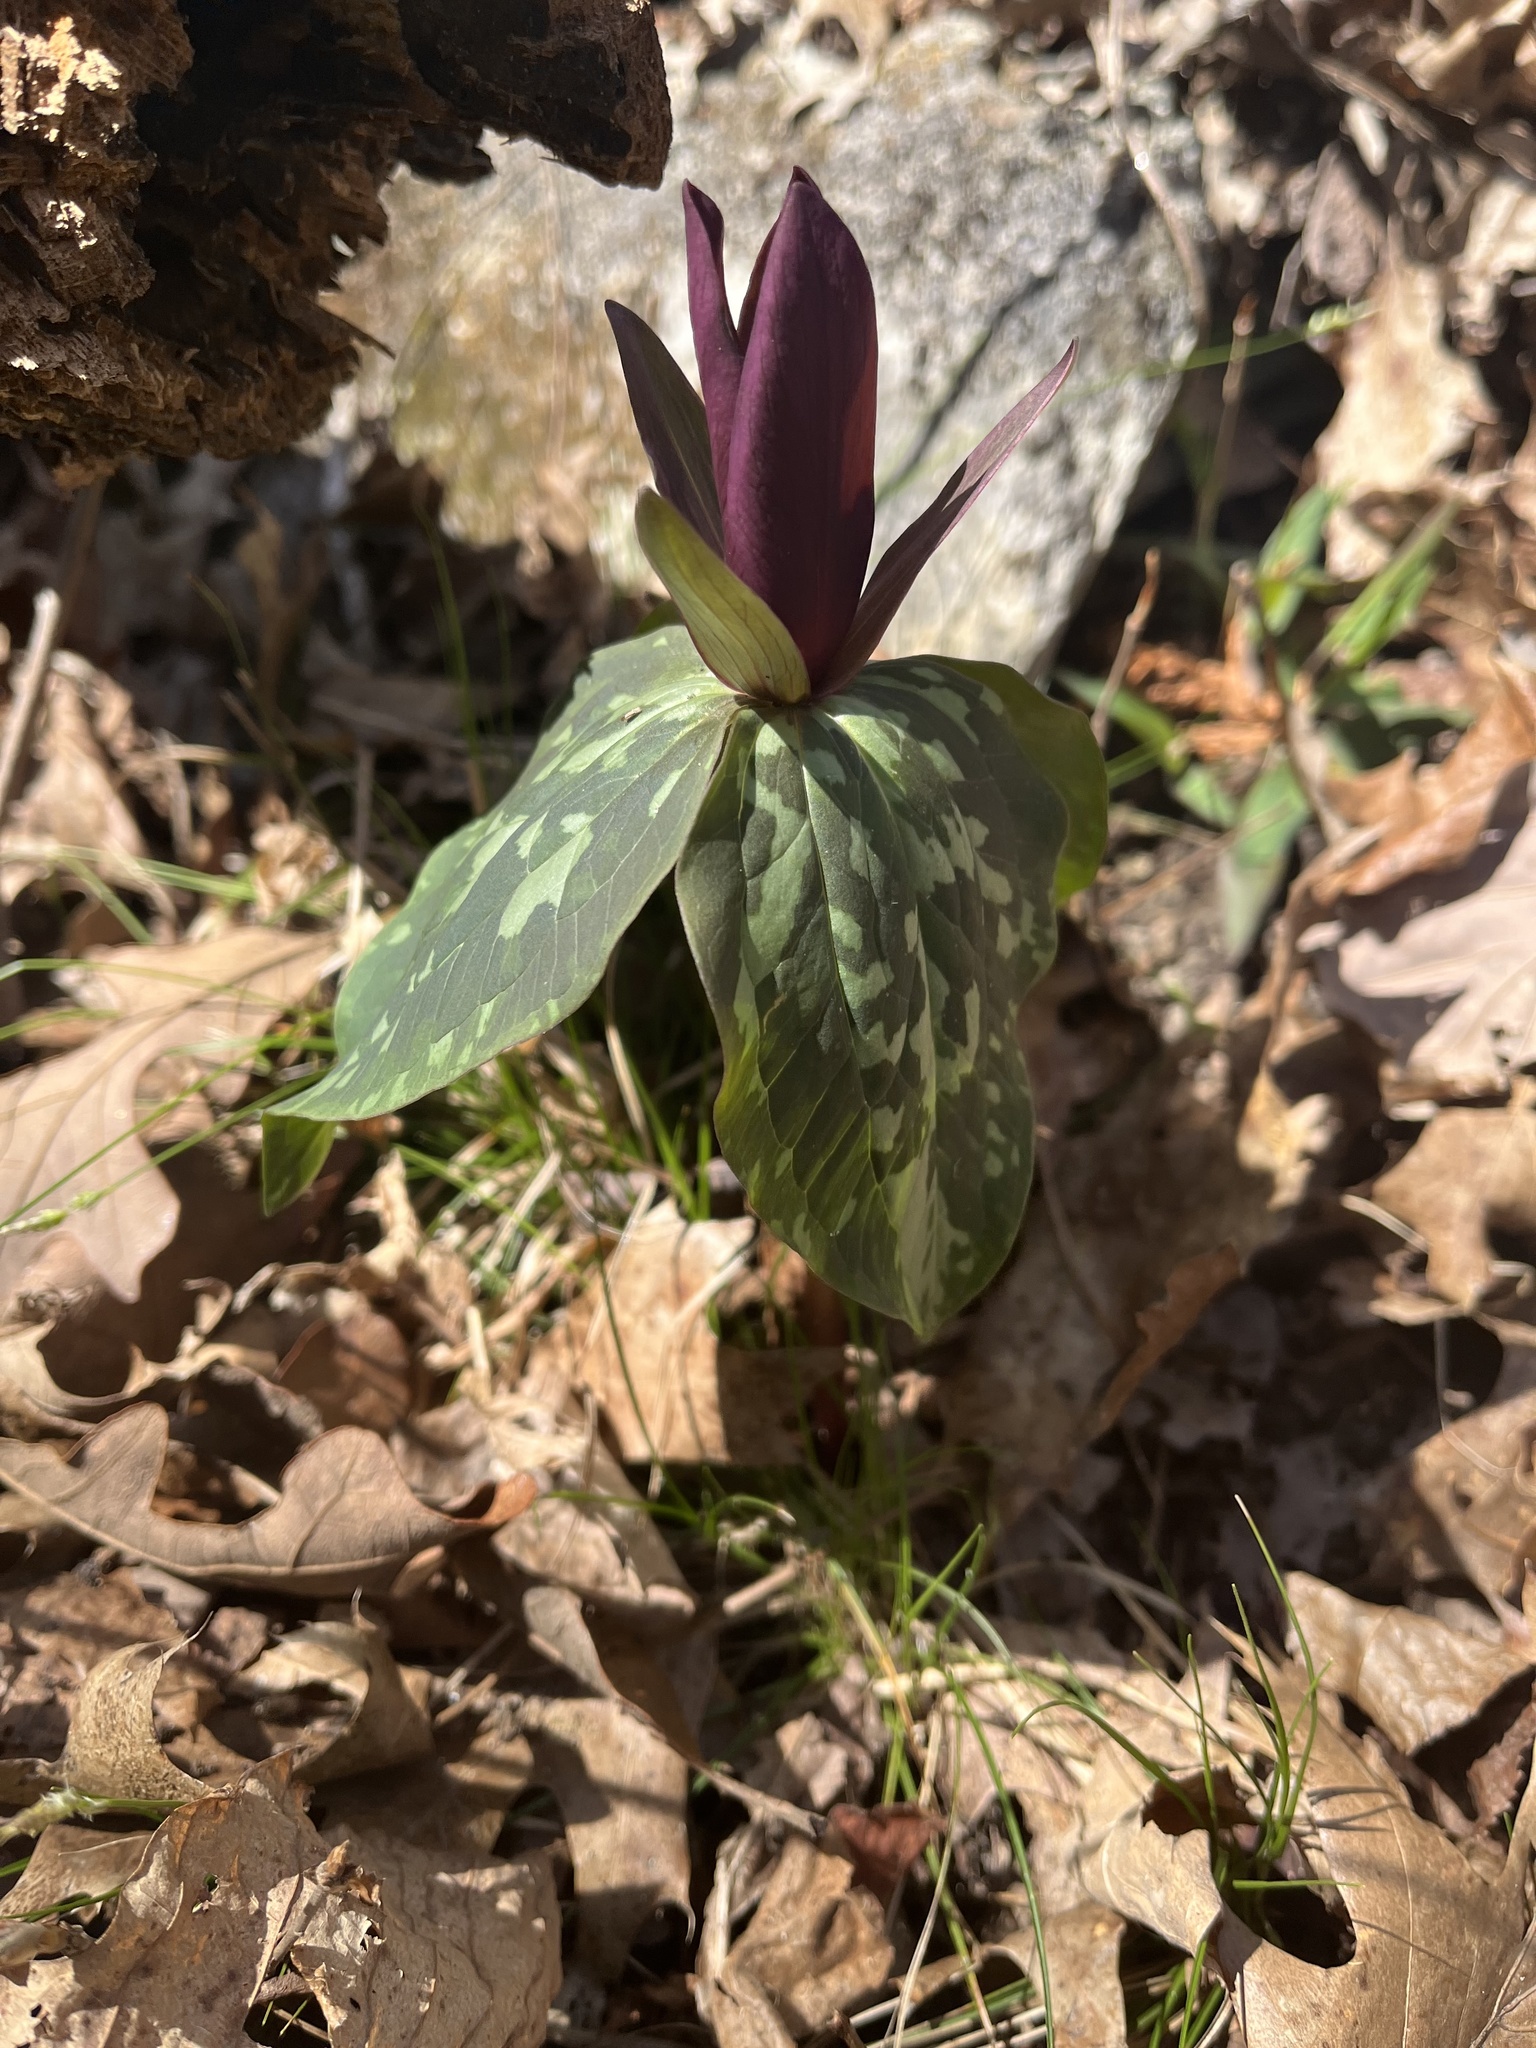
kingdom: Plantae
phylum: Tracheophyta
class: Liliopsida
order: Liliales
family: Melanthiaceae
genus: Trillium
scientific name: Trillium cuneatum
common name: Cuneate trillium
